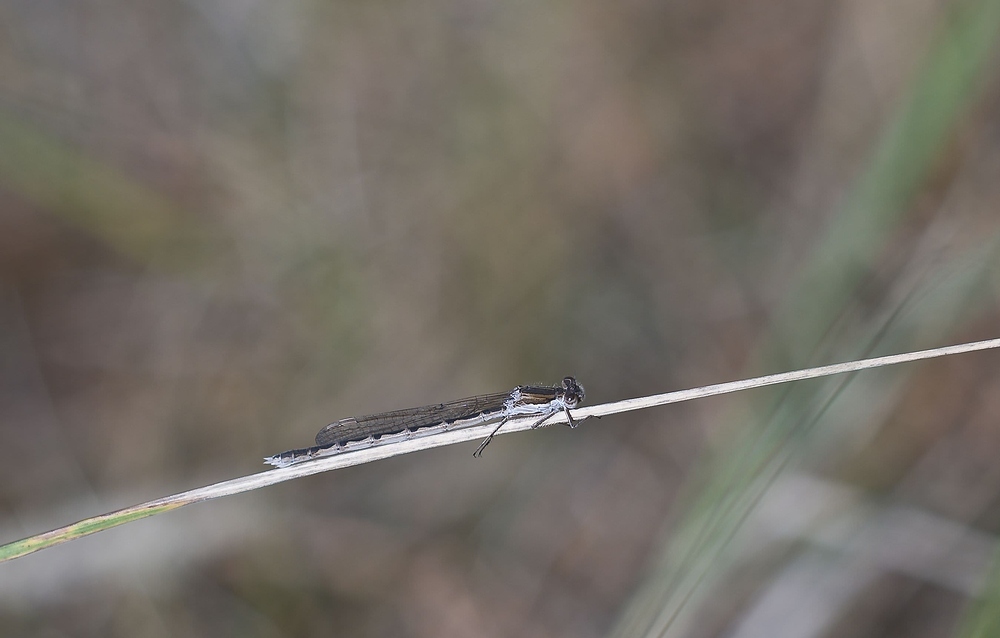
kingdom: Animalia
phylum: Arthropoda
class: Insecta
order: Odonata
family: Lestidae
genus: Sympecma
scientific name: Sympecma fusca
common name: Common winter damsel
